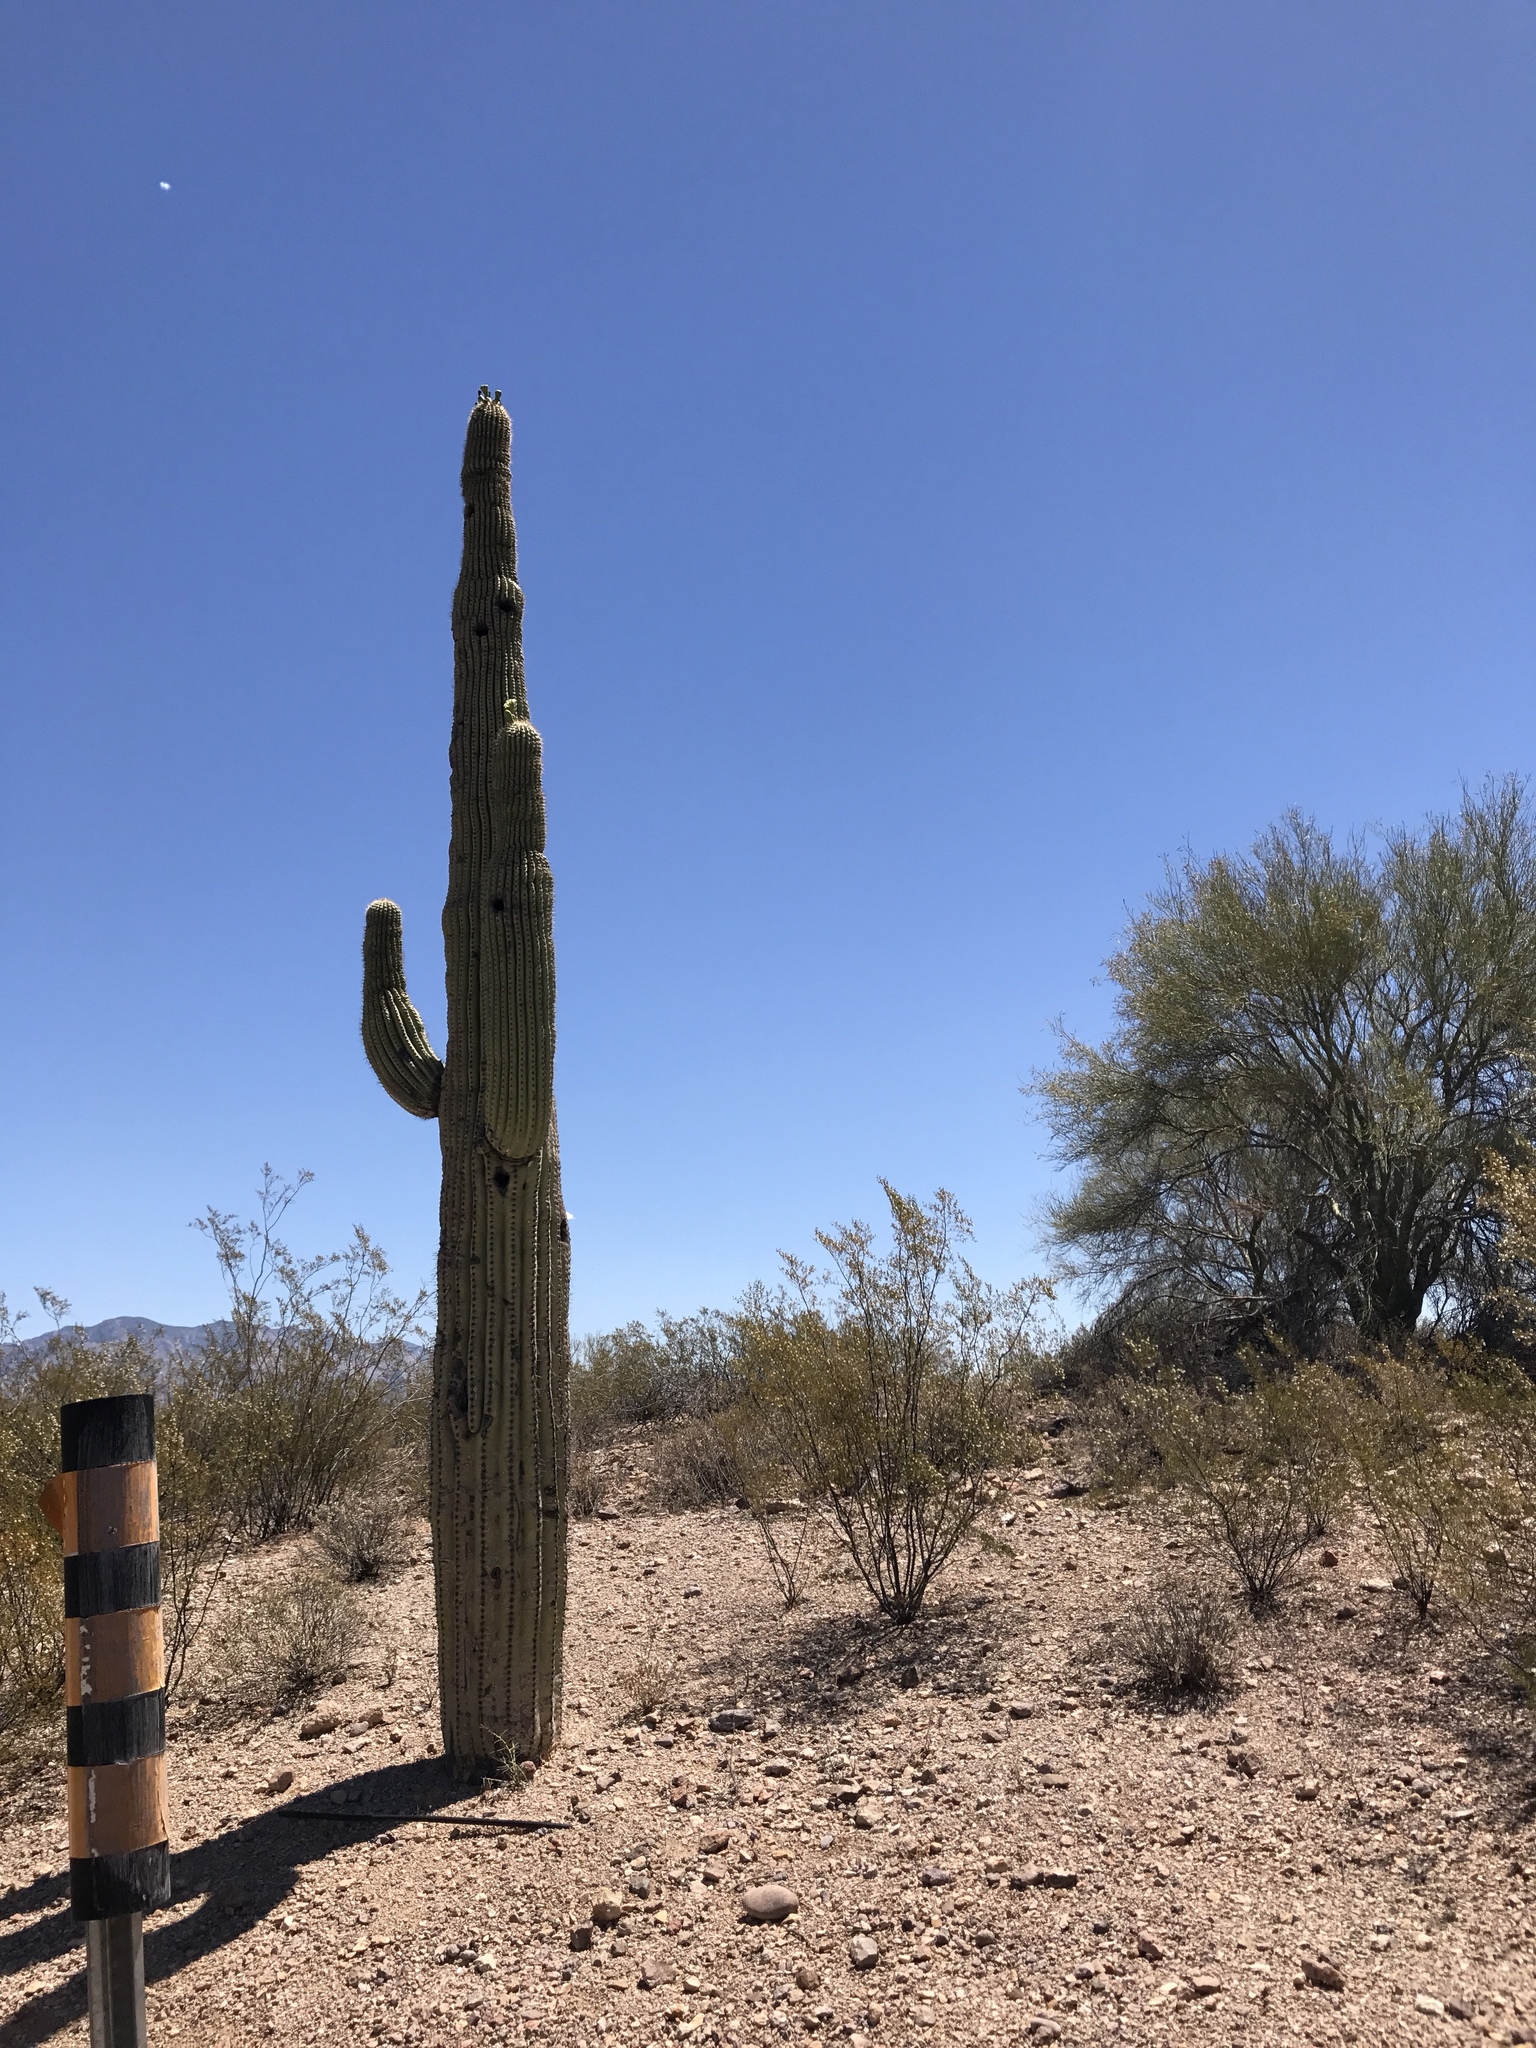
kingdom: Plantae
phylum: Tracheophyta
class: Magnoliopsida
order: Caryophyllales
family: Cactaceae
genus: Carnegiea
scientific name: Carnegiea gigantea
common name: Saguaro
